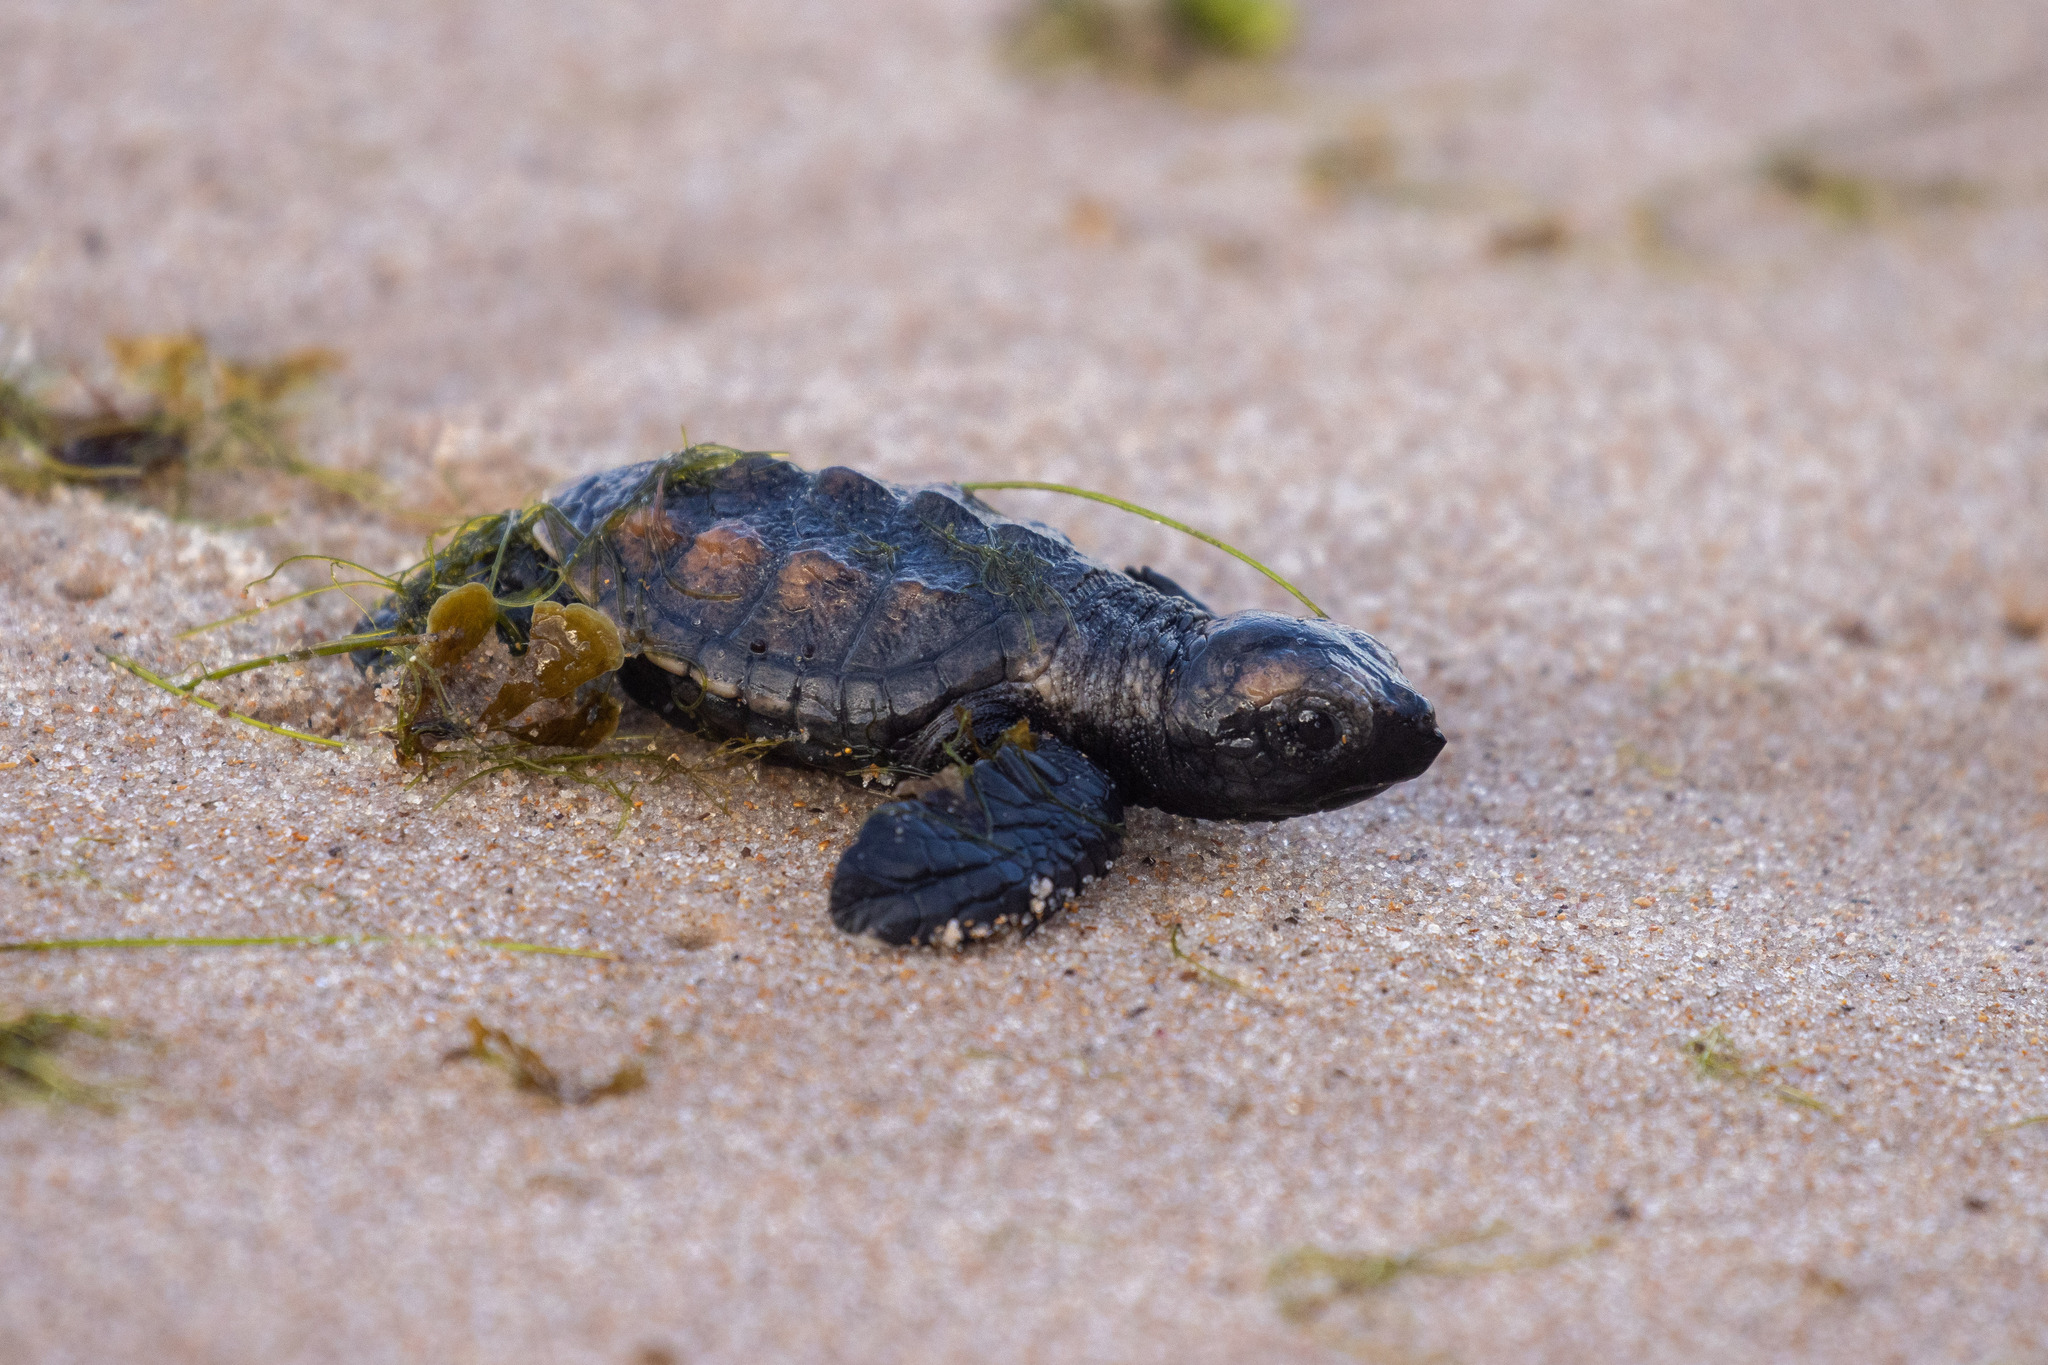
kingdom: Animalia
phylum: Chordata
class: Testudines
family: Cheloniidae
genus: Eretmochelys
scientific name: Eretmochelys imbricata
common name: Hawksbill turtle
